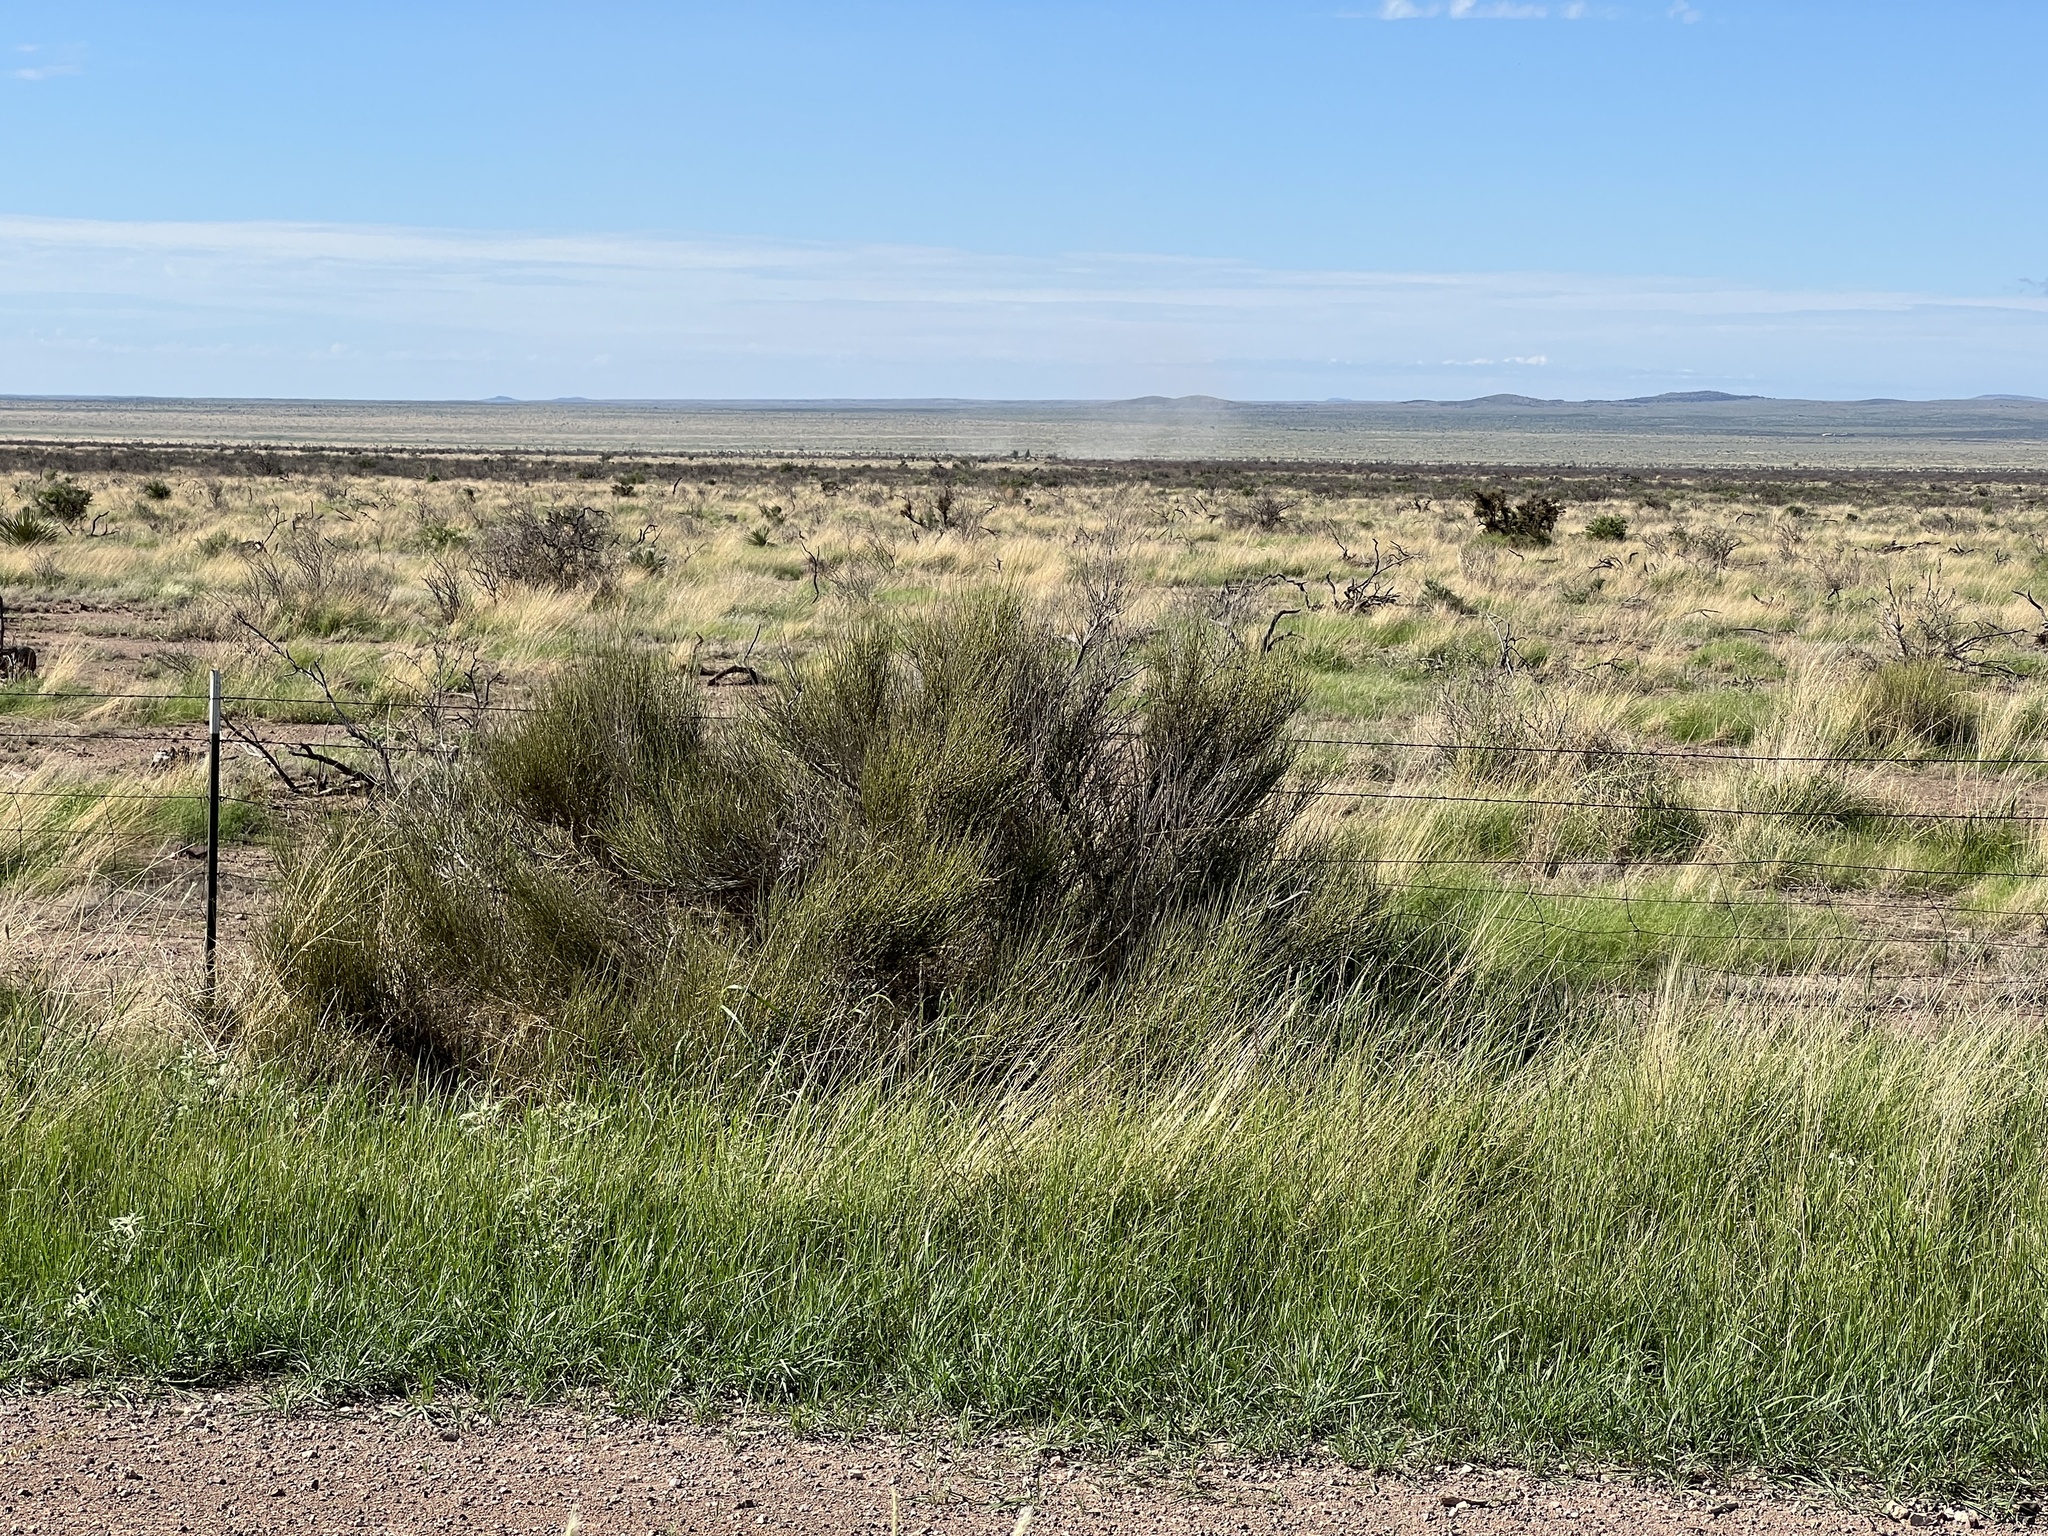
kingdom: Plantae
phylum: Tracheophyta
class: Gnetopsida
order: Ephedrales
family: Ephedraceae
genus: Ephedra
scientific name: Ephedra trifurca
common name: Mexican-tea
